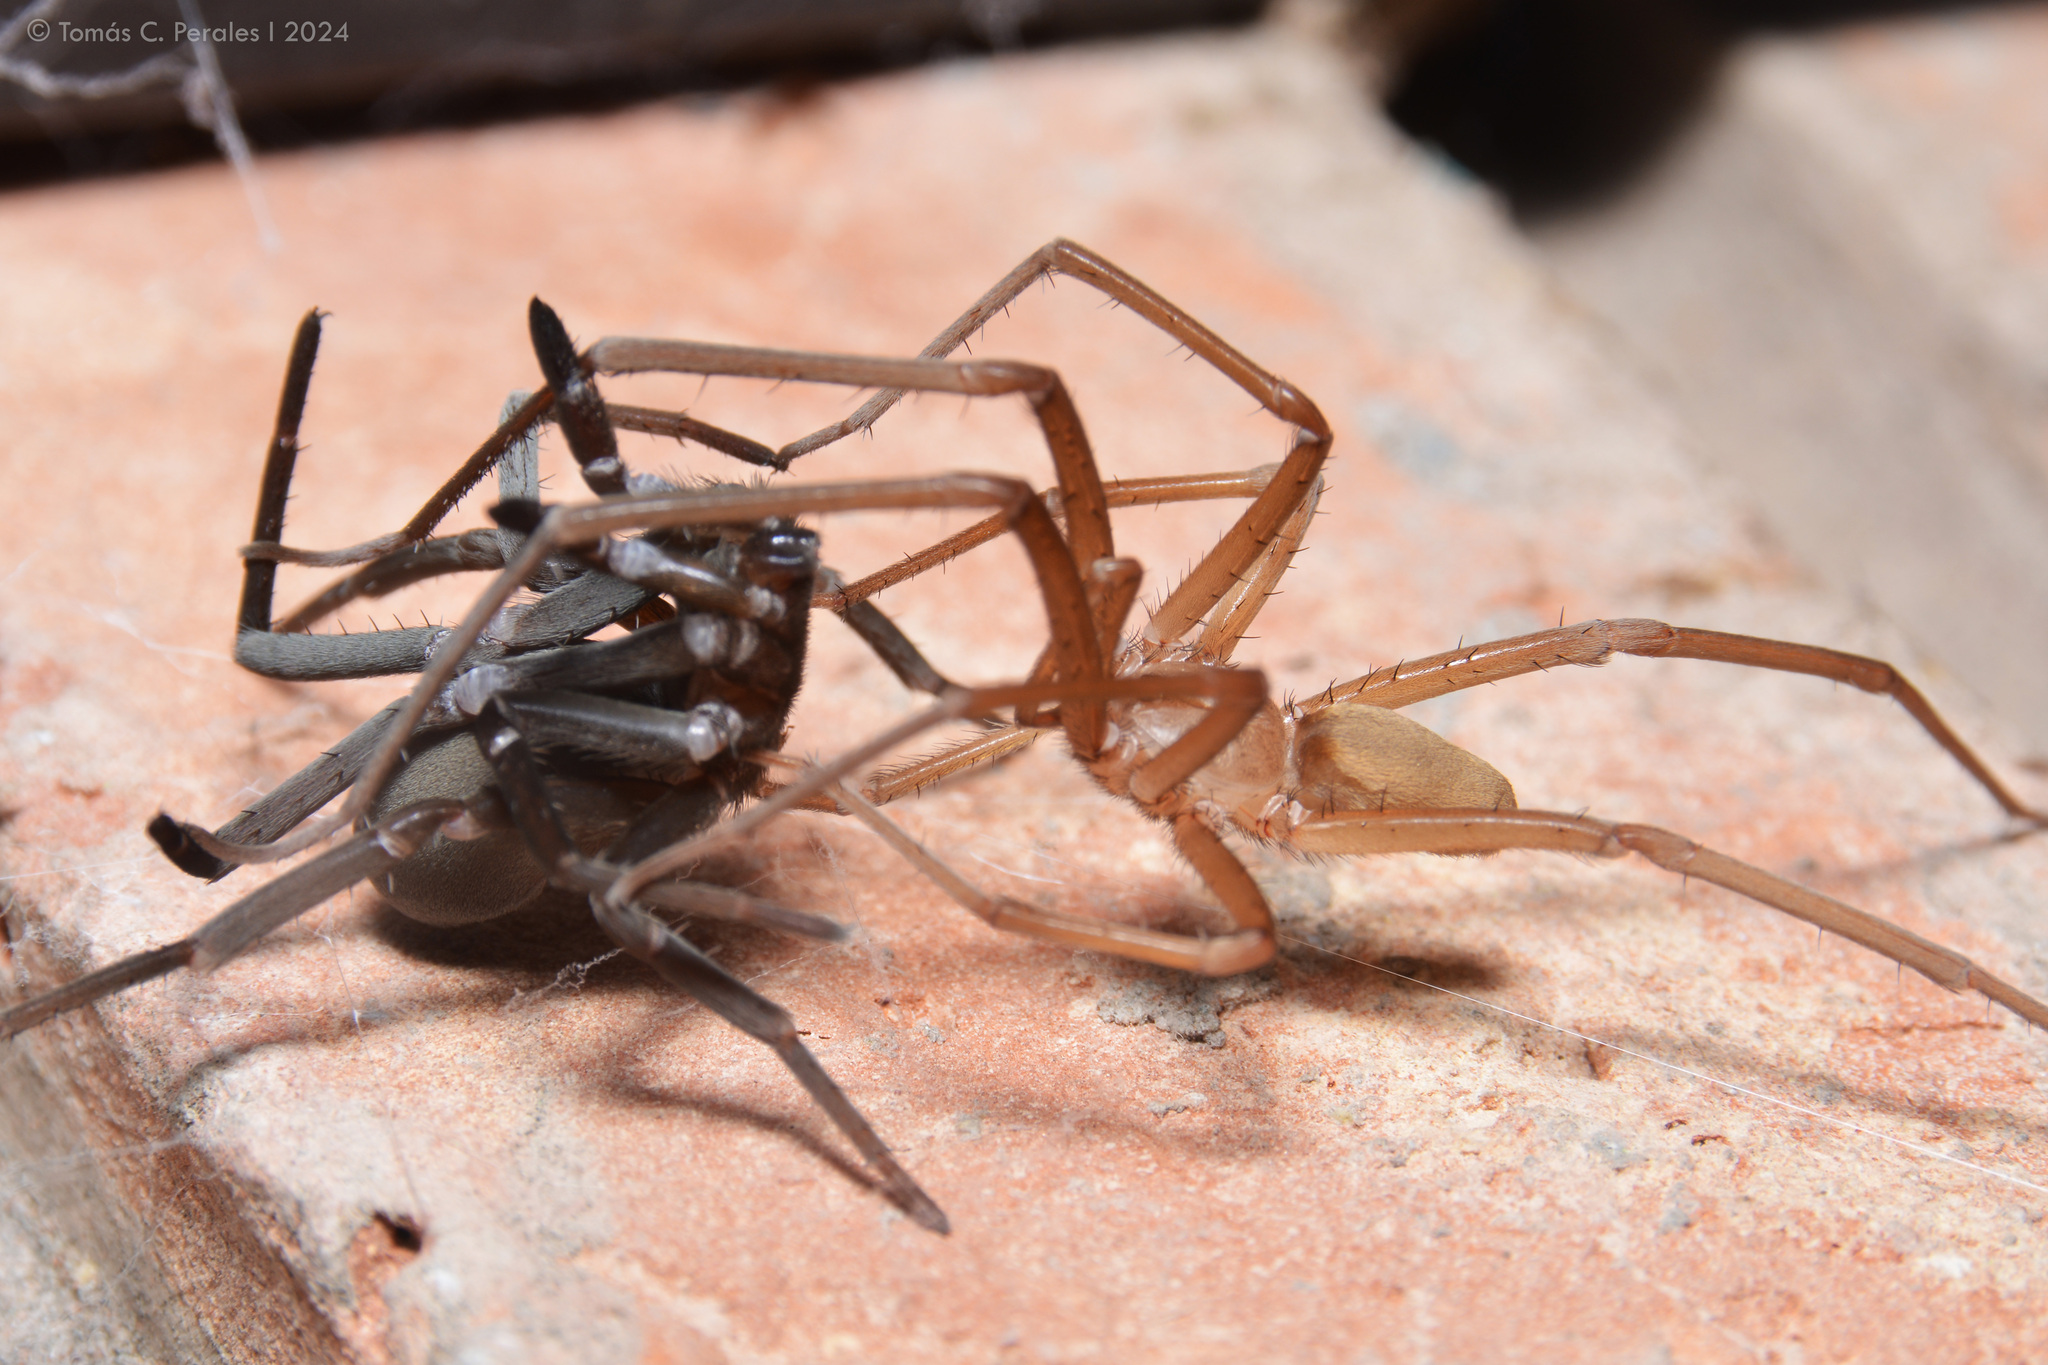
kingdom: Animalia
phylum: Arthropoda
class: Arachnida
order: Araneae
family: Filistatidae
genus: Kukulcania
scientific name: Kukulcania hibernalis
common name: Crevice weaver
